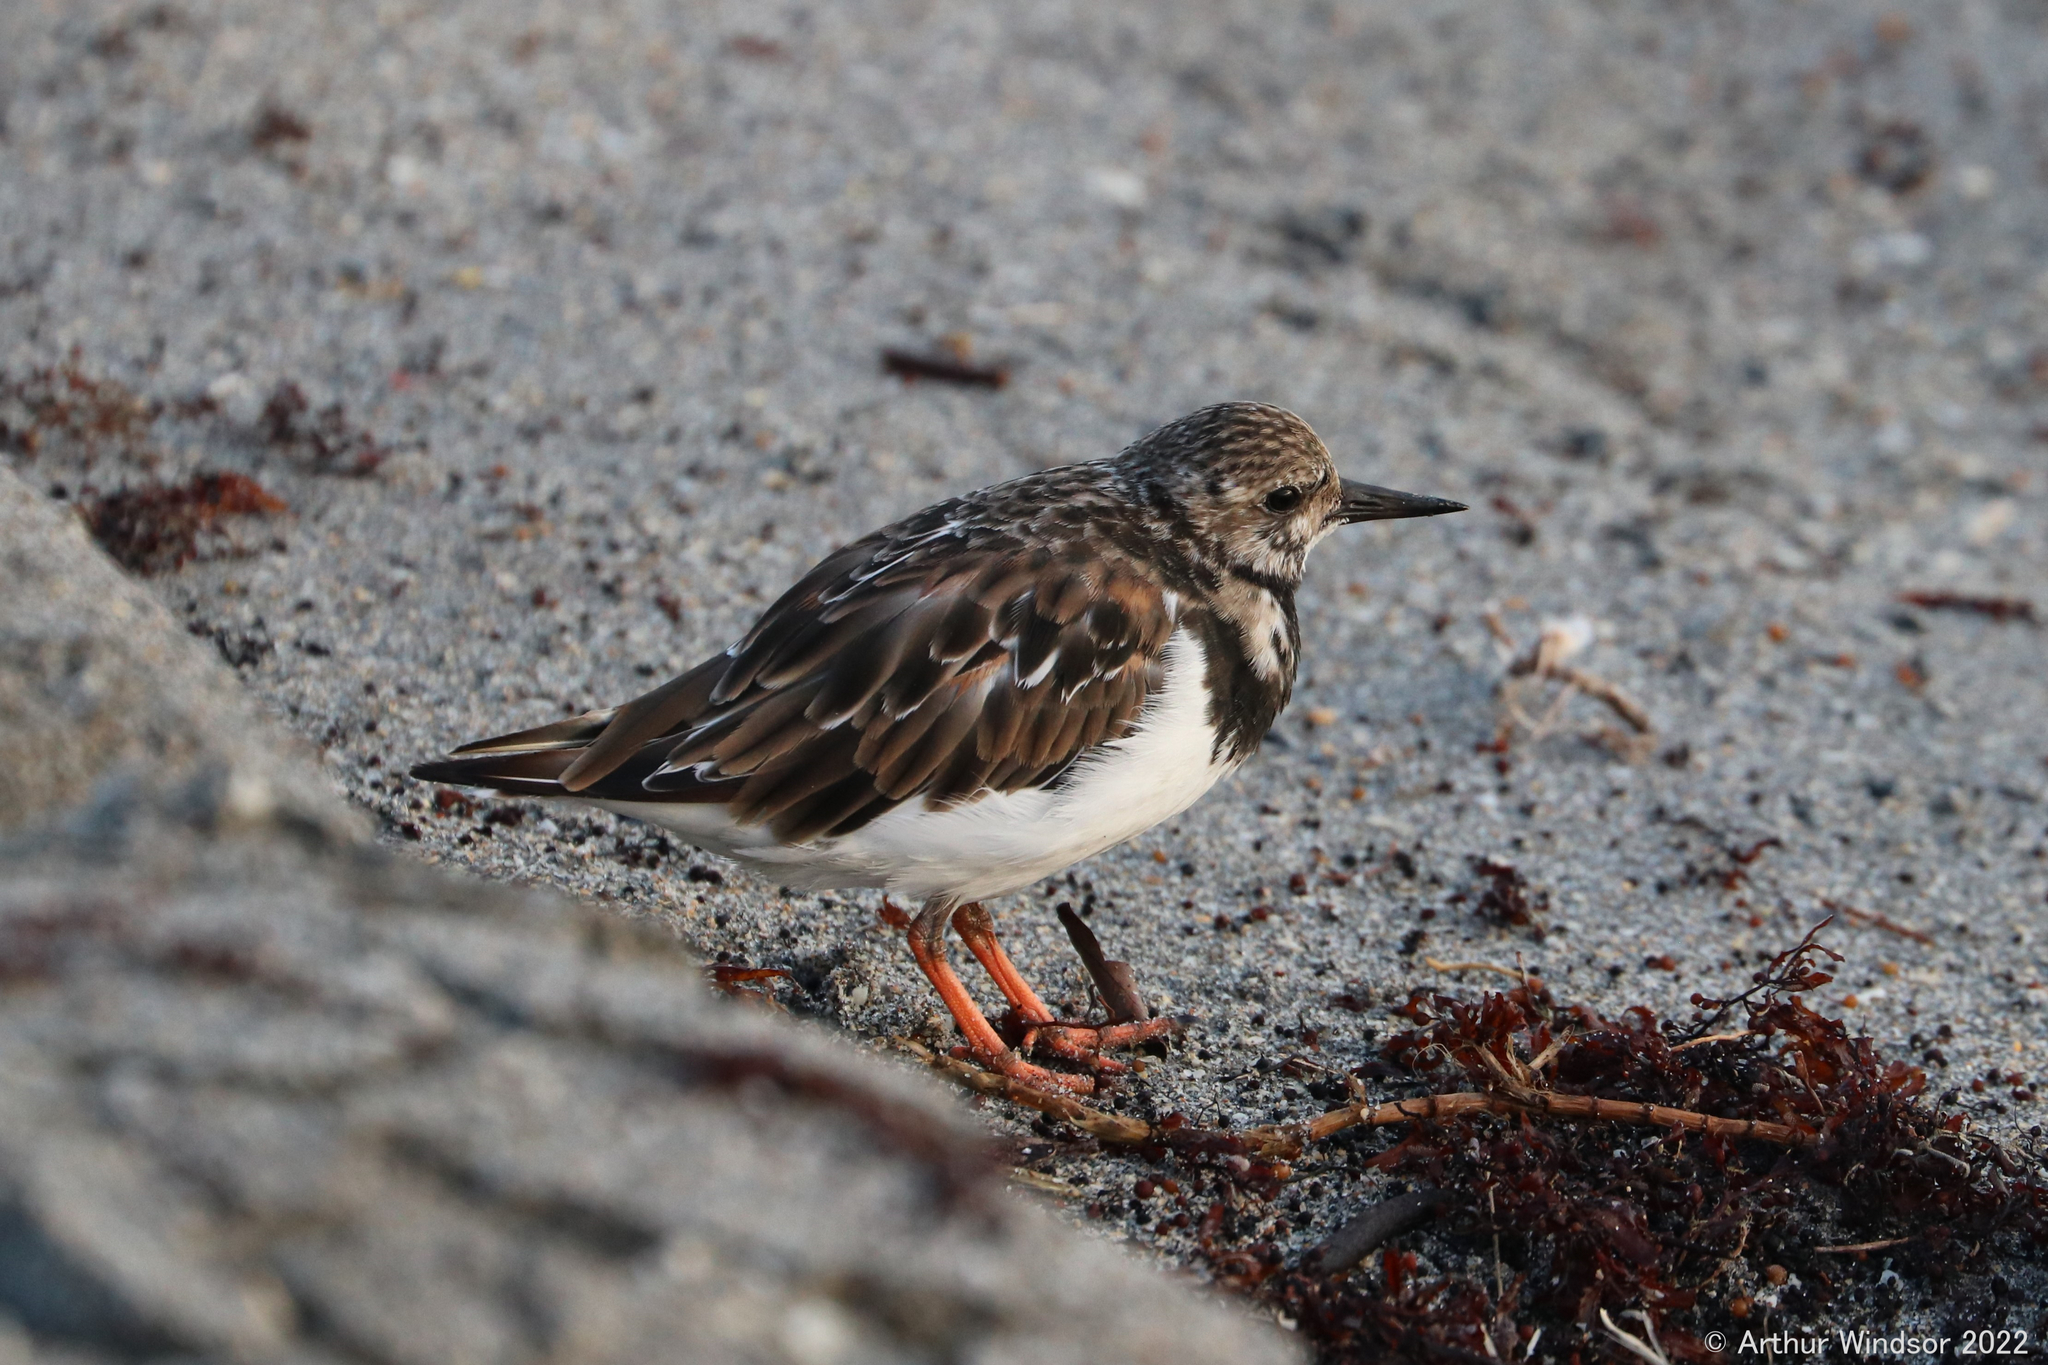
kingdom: Animalia
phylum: Chordata
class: Aves
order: Charadriiformes
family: Scolopacidae
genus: Arenaria
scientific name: Arenaria interpres
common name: Ruddy turnstone
